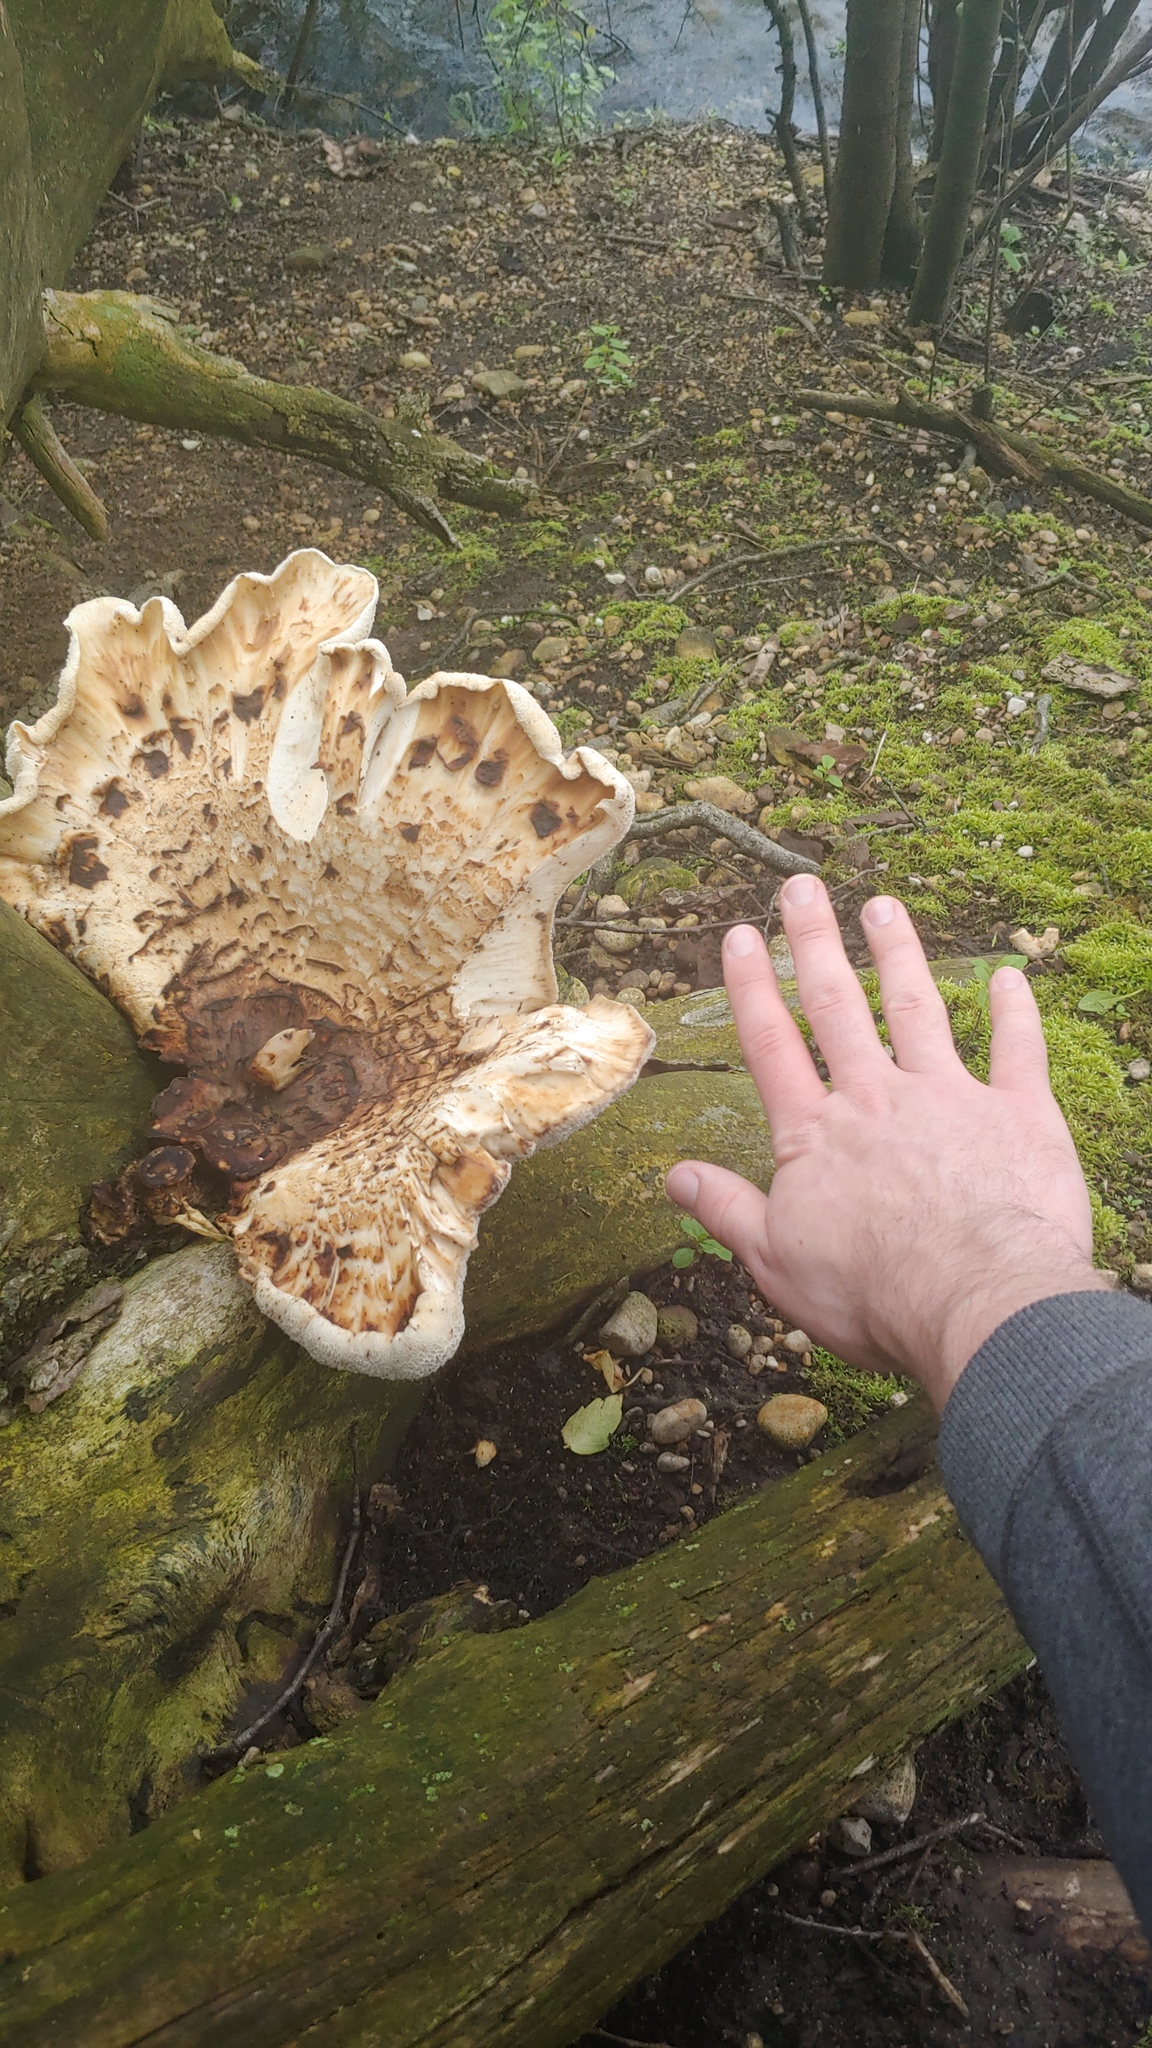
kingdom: Fungi
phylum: Basidiomycota
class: Agaricomycetes
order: Polyporales
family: Polyporaceae
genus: Cerioporus
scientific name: Cerioporus squamosus
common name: Dryad's saddle
